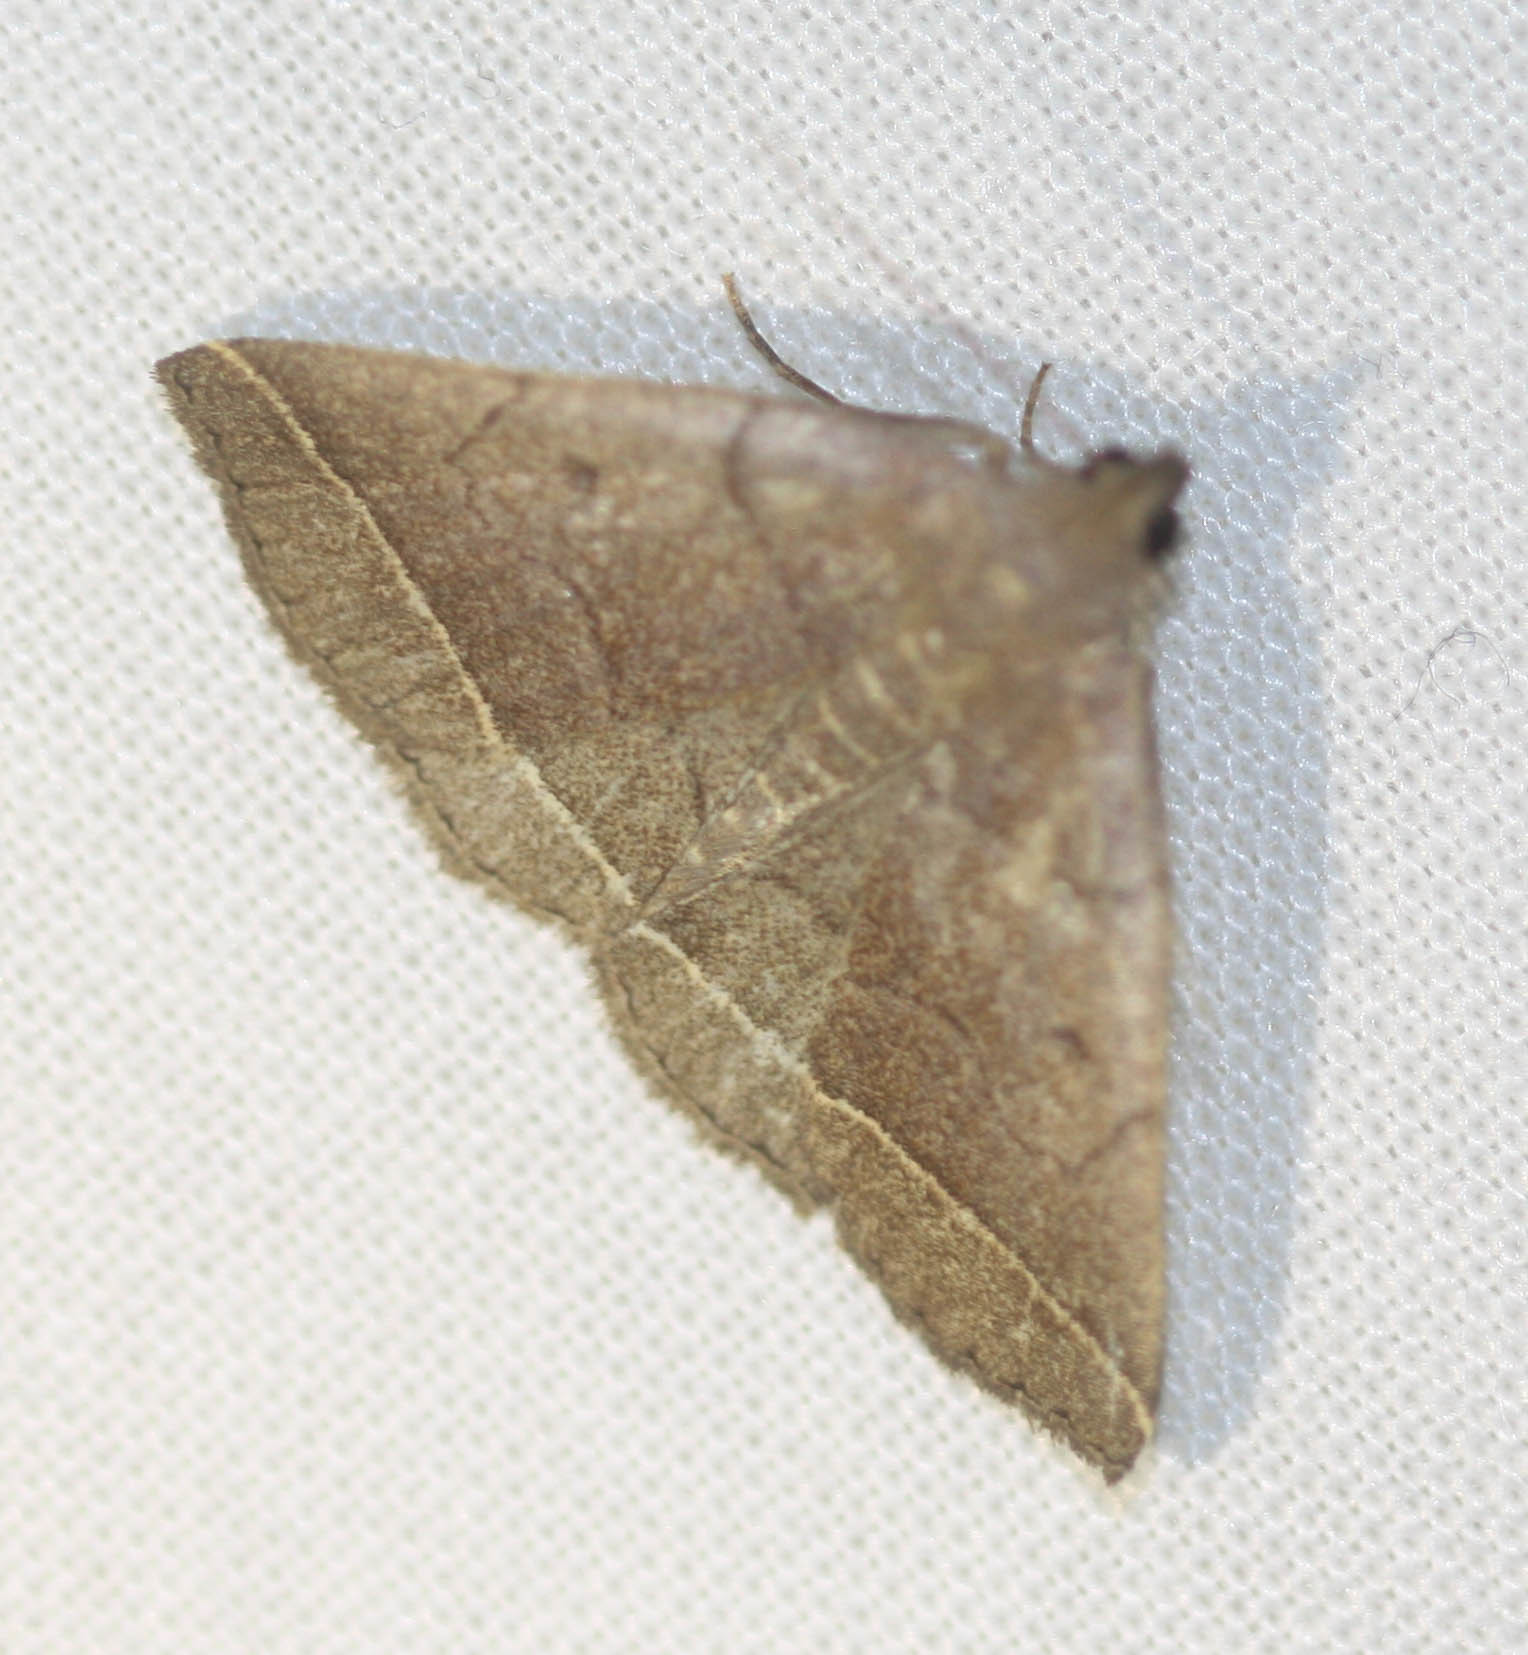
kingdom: Animalia
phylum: Arthropoda
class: Insecta
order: Lepidoptera
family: Erebidae
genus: Zanclognatha
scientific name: Zanclognatha obscuripennis
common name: Dark fan-foot
